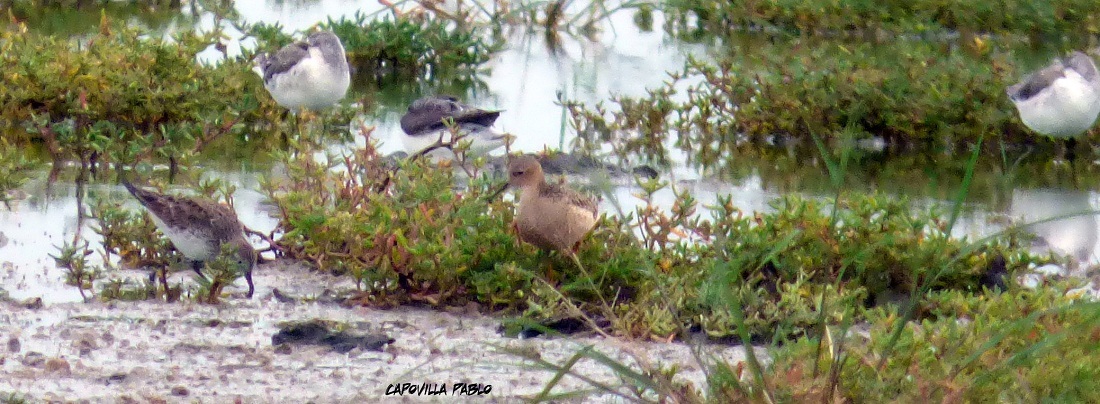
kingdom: Animalia
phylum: Chordata
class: Aves
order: Charadriiformes
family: Scolopacidae
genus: Calidris
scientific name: Calidris subruficollis
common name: Buff-breasted sandpiper
